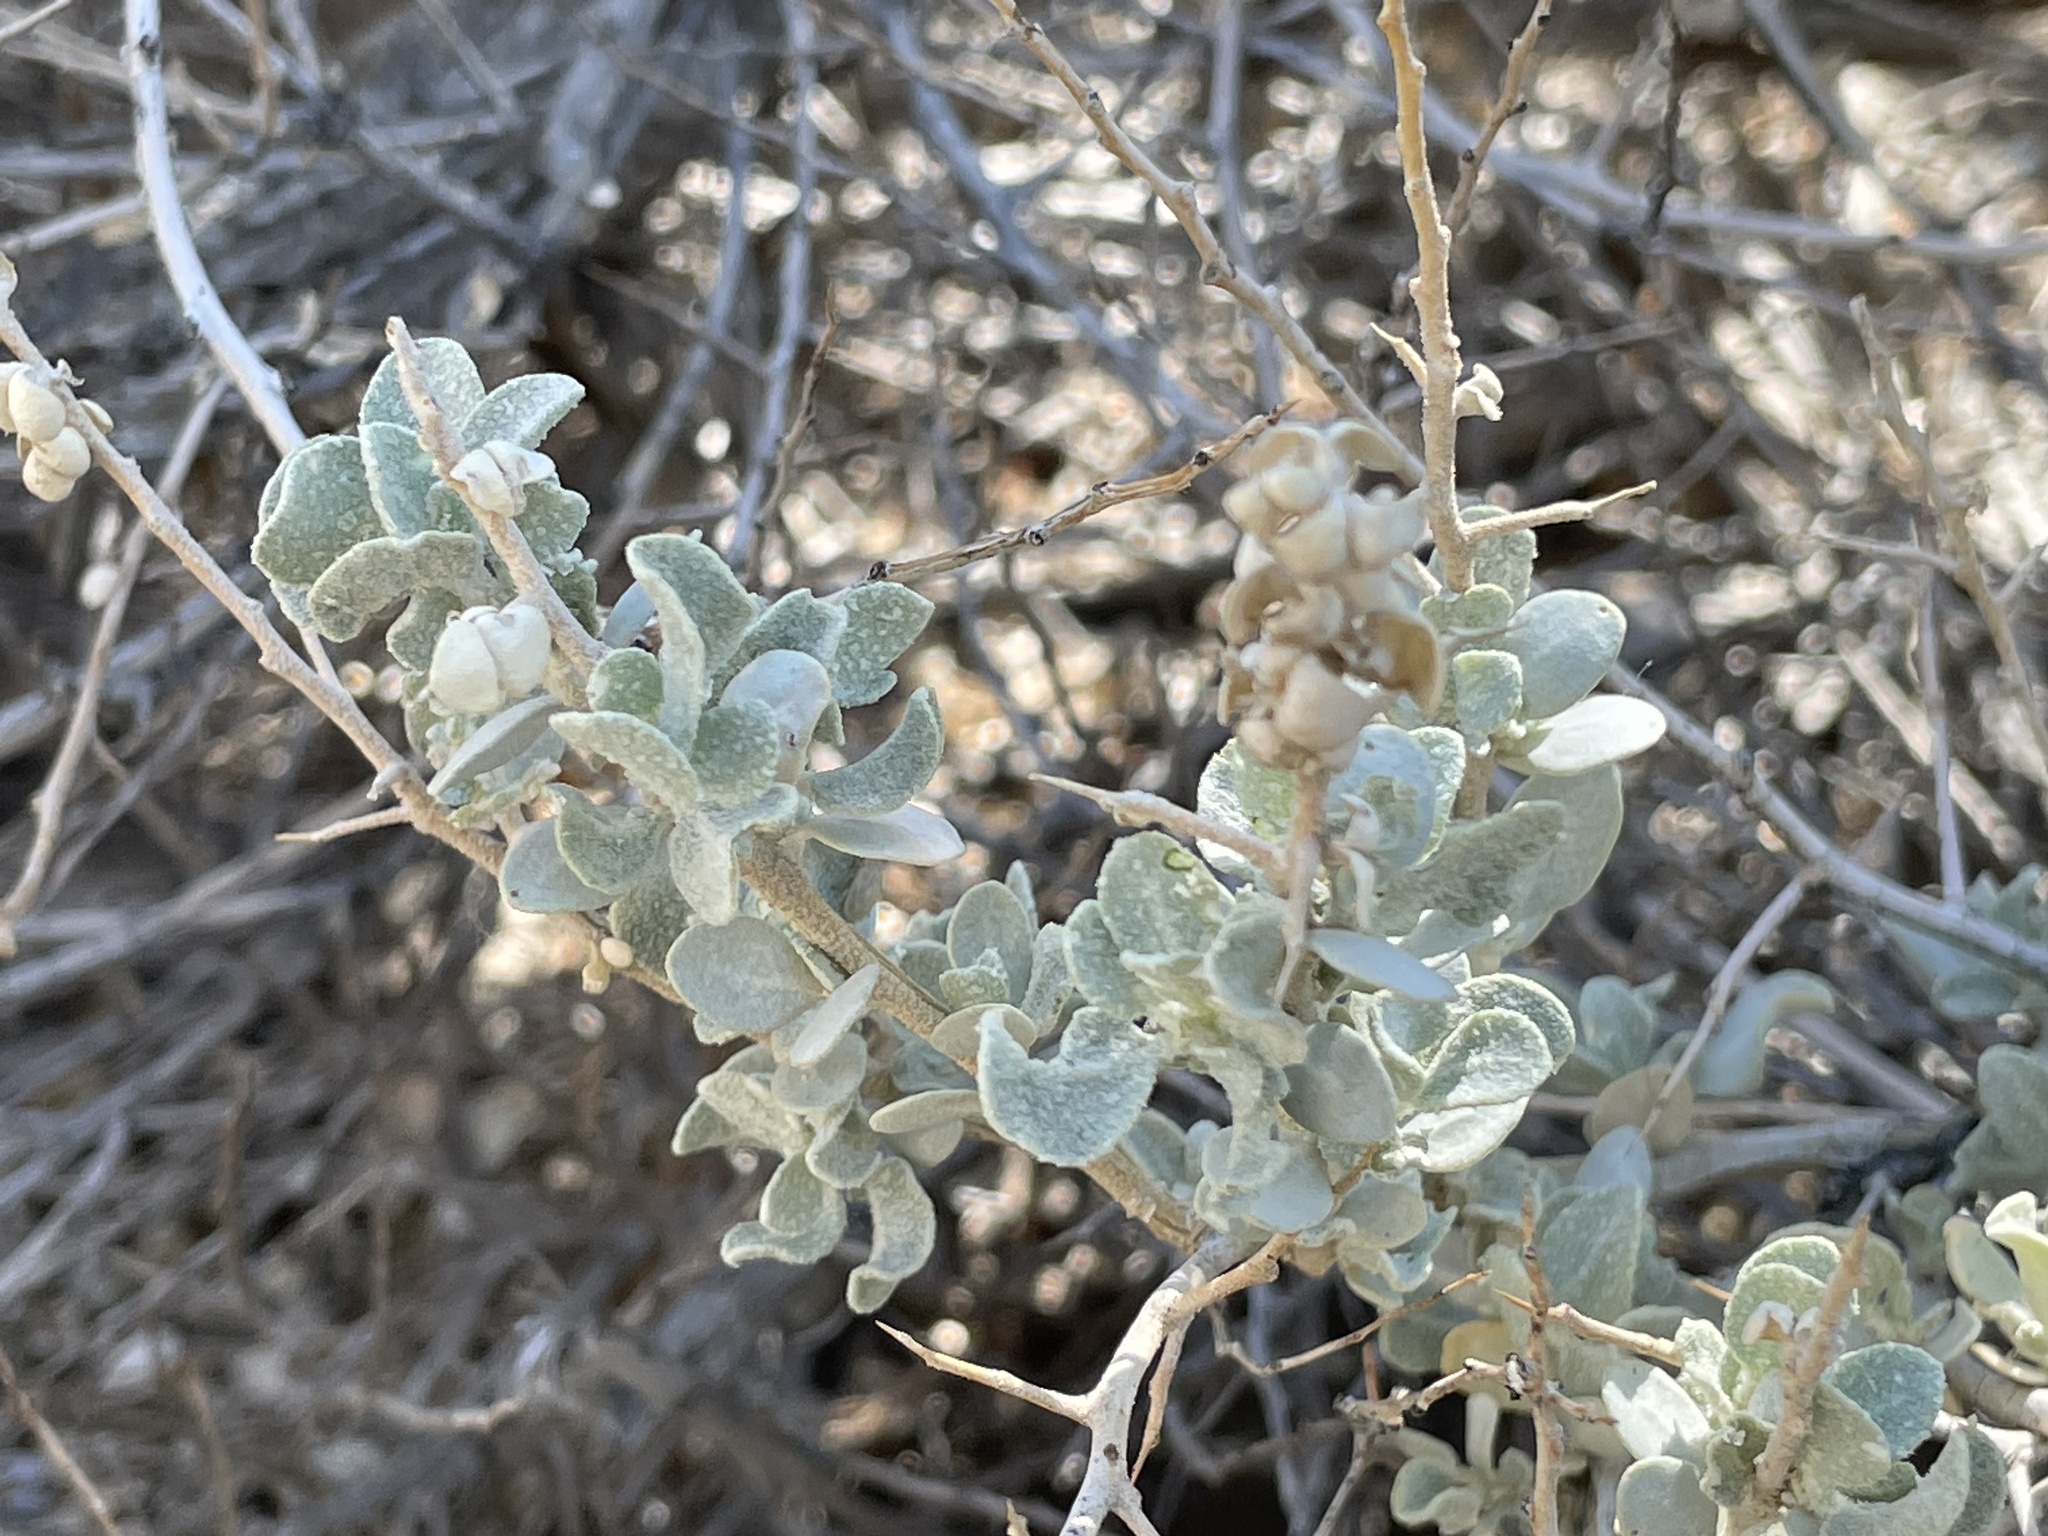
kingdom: Plantae
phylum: Tracheophyta
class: Magnoliopsida
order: Caryophyllales
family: Amaranthaceae
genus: Atriplex
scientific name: Atriplex confertifolia
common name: Shadscale
